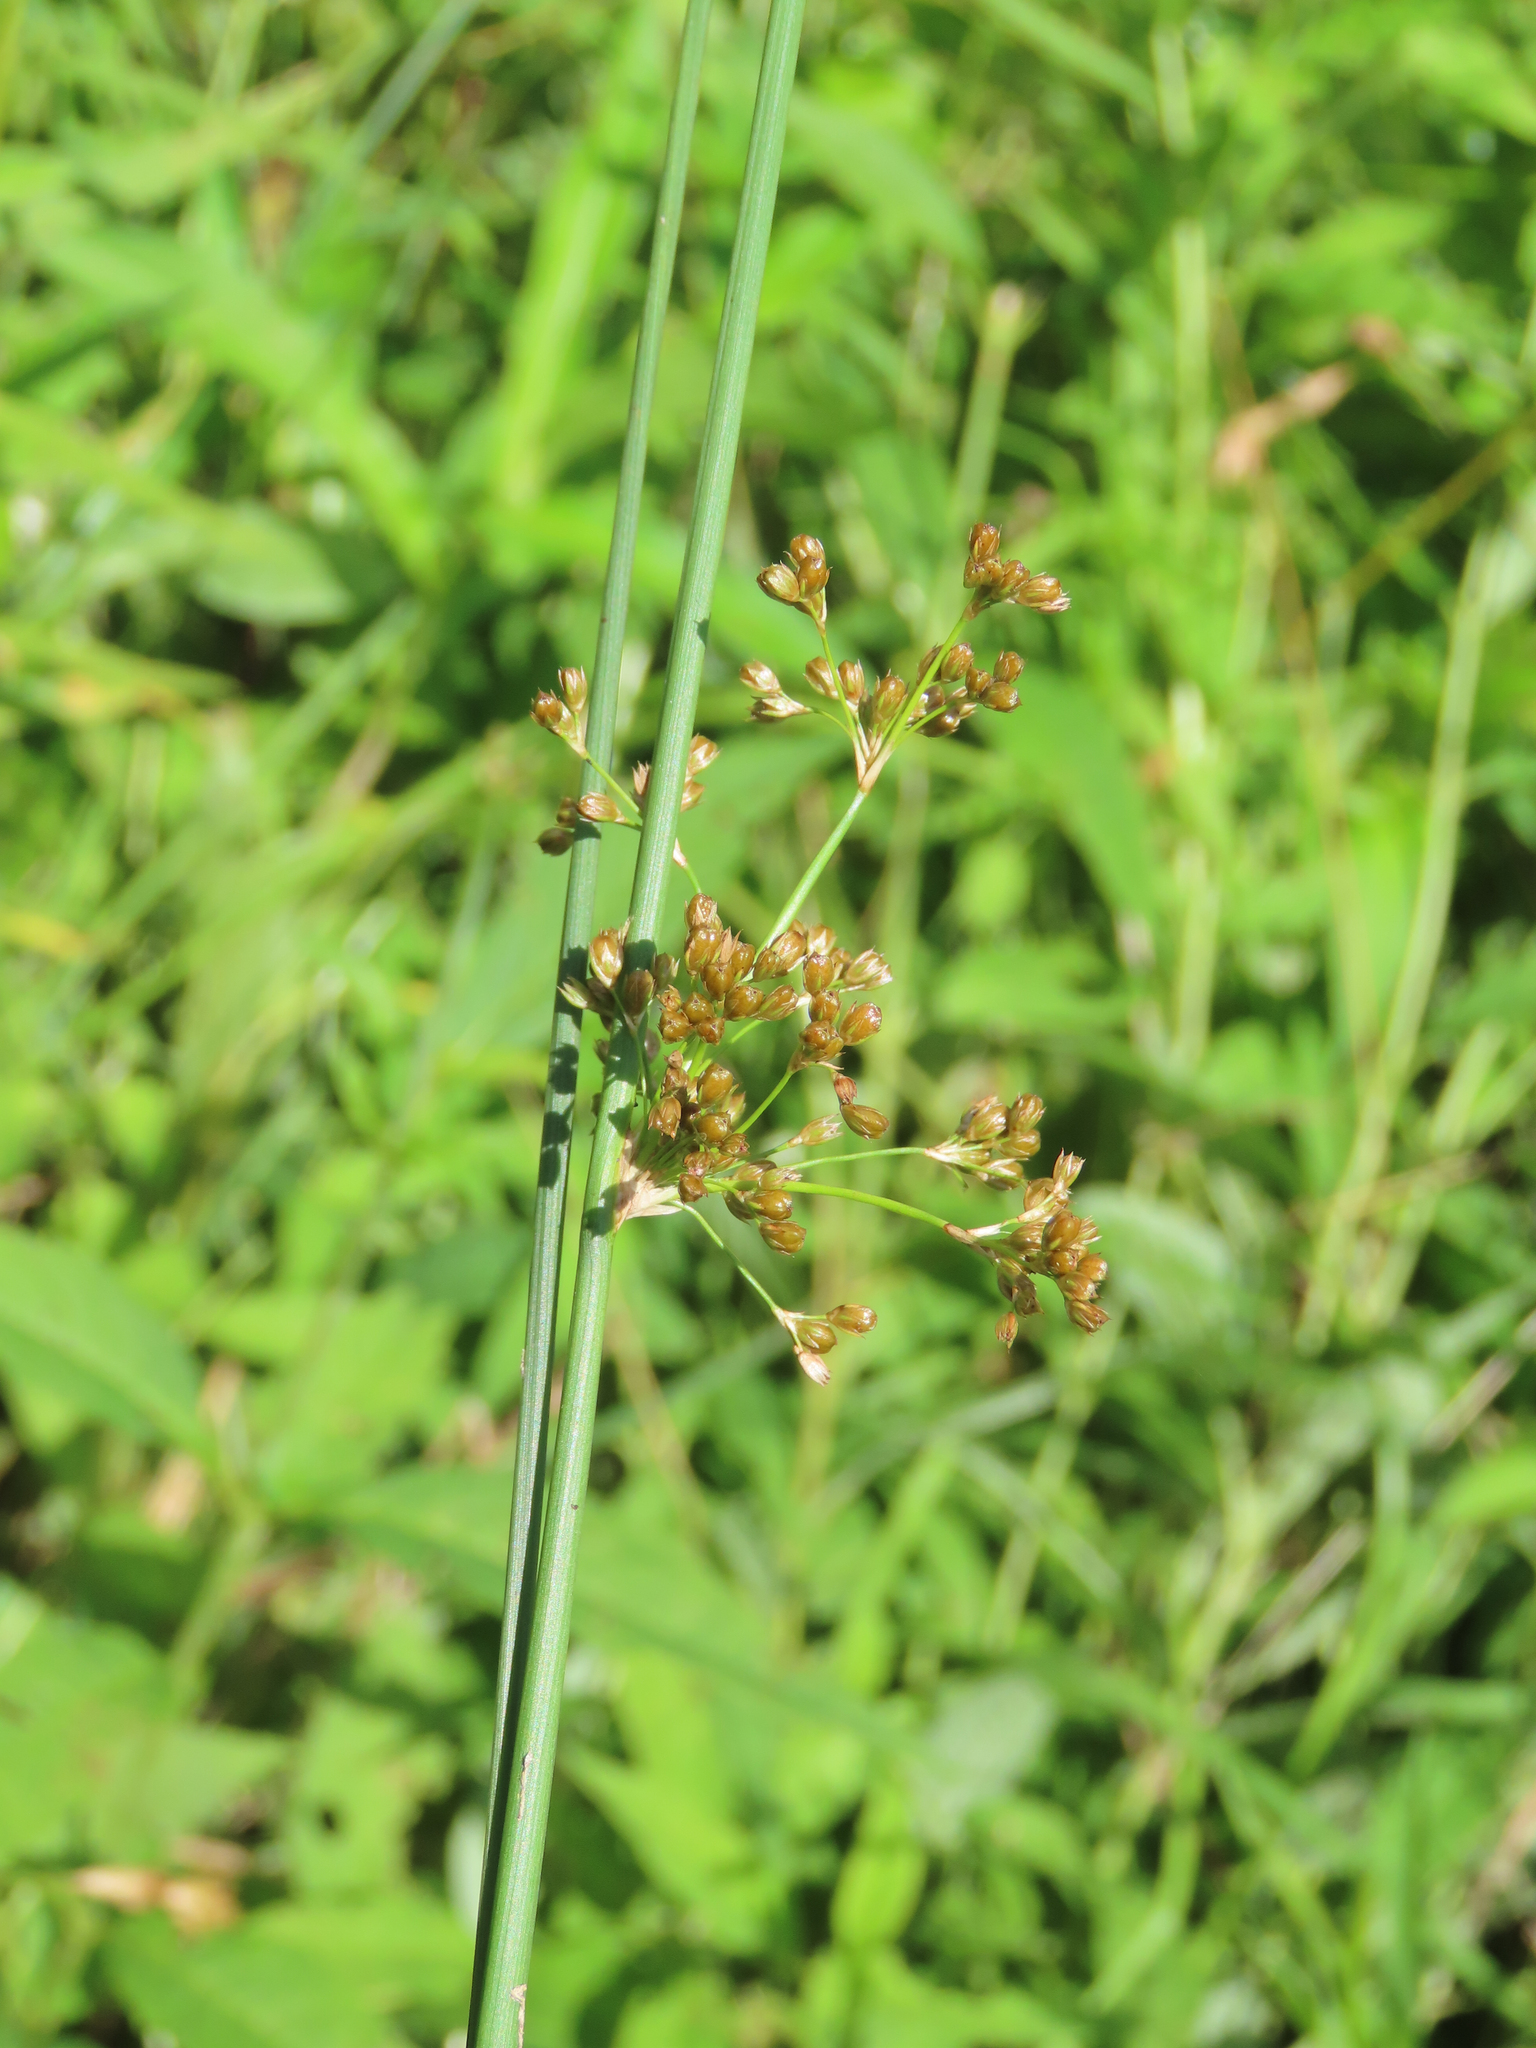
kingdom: Plantae
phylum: Tracheophyta
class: Liliopsida
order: Poales
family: Juncaceae
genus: Juncus
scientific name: Juncus effusus
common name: Soft rush
